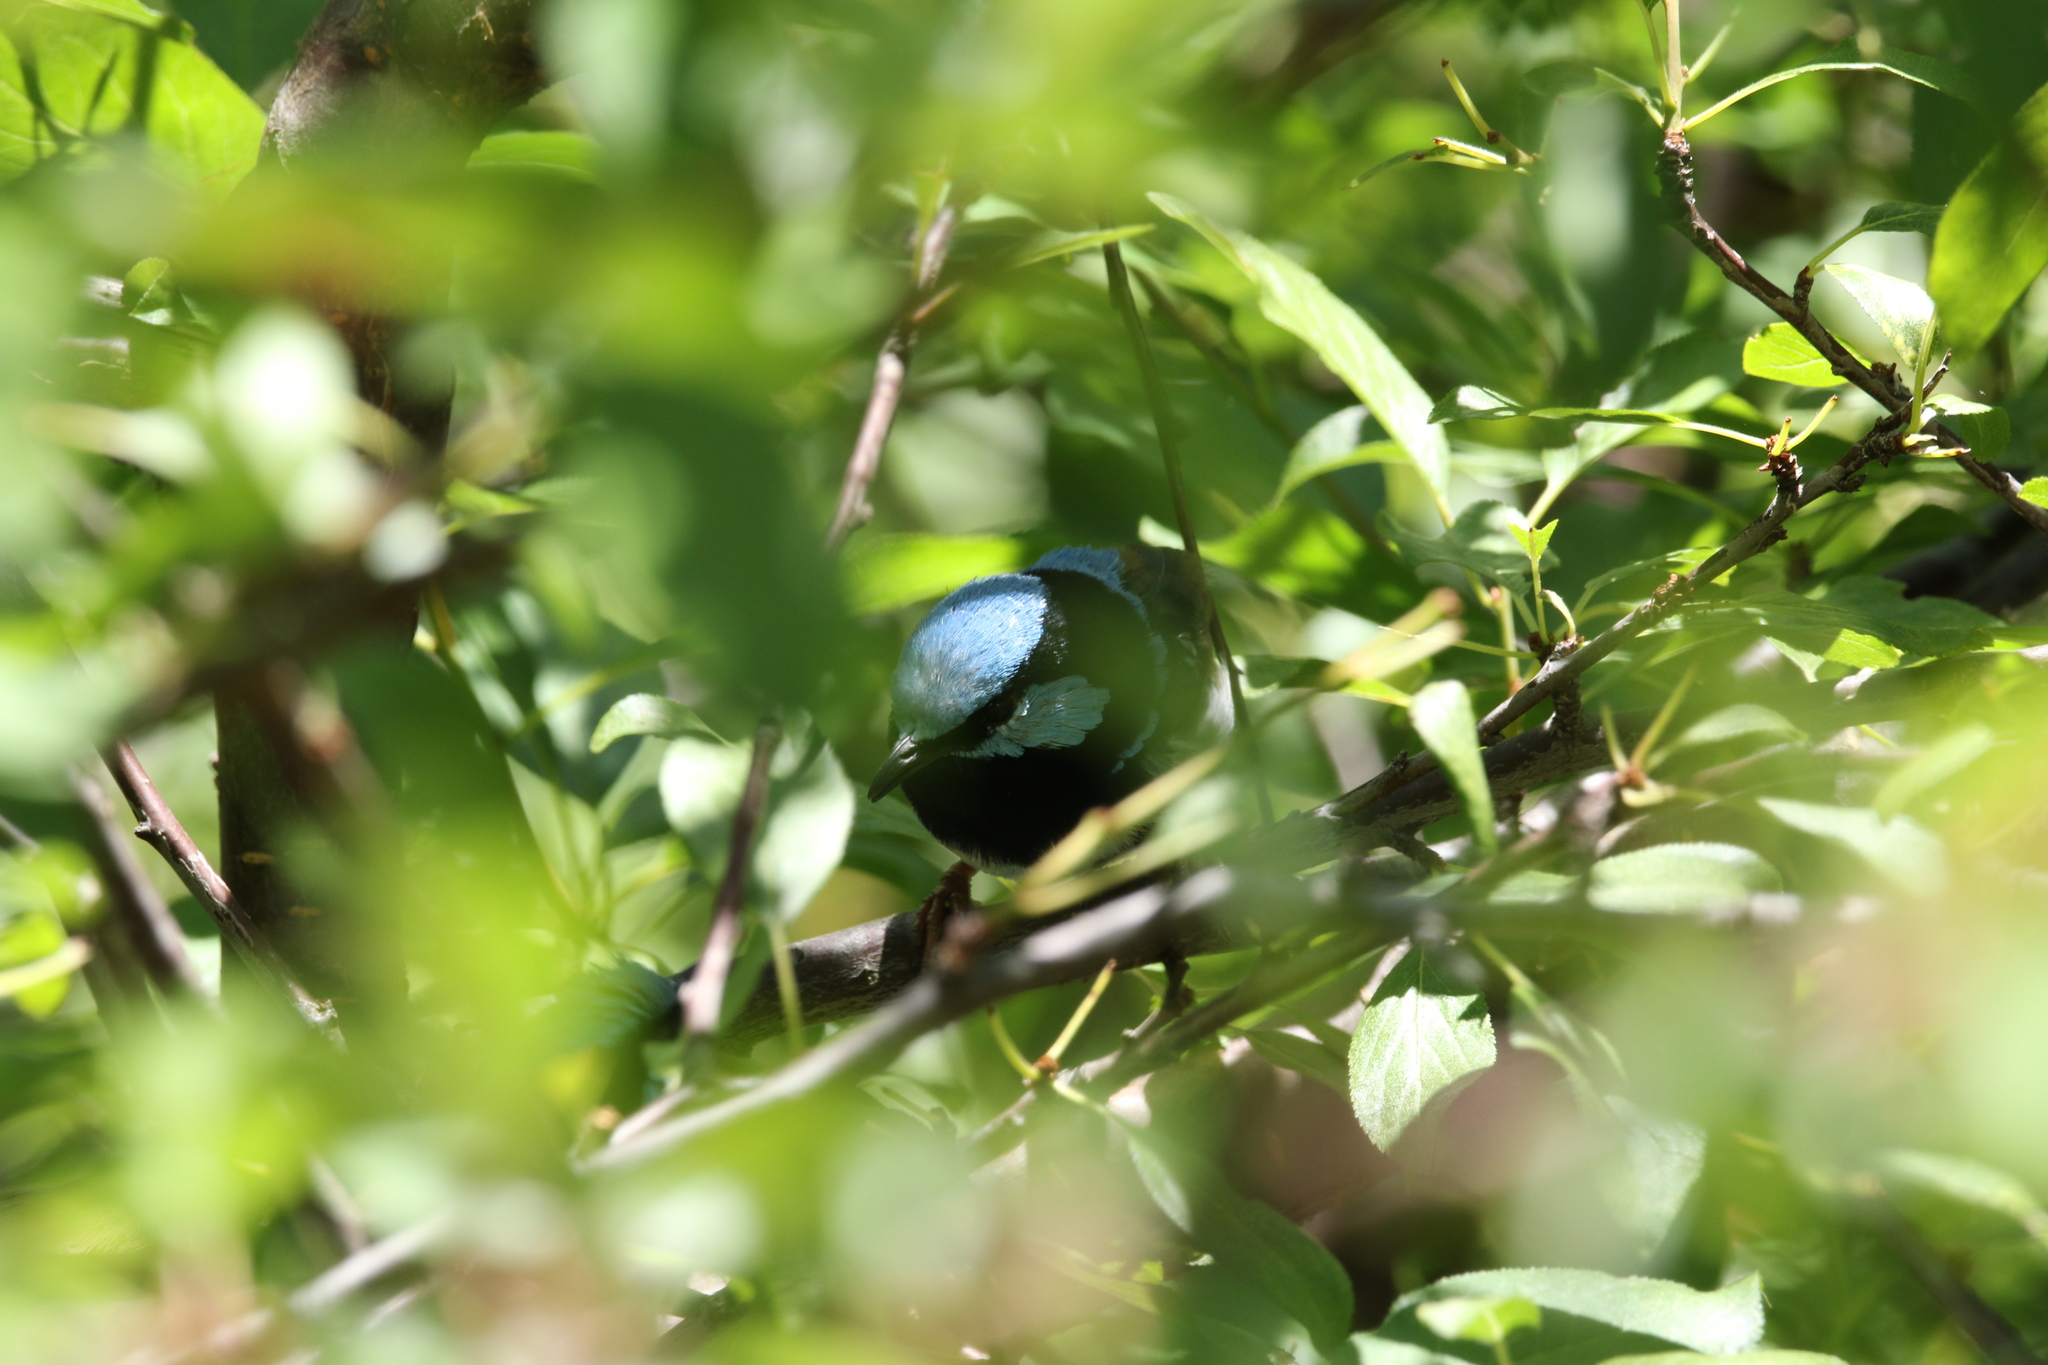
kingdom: Animalia
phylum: Chordata
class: Aves
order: Passeriformes
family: Maluridae
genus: Malurus
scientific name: Malurus cyaneus
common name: Superb fairywren
